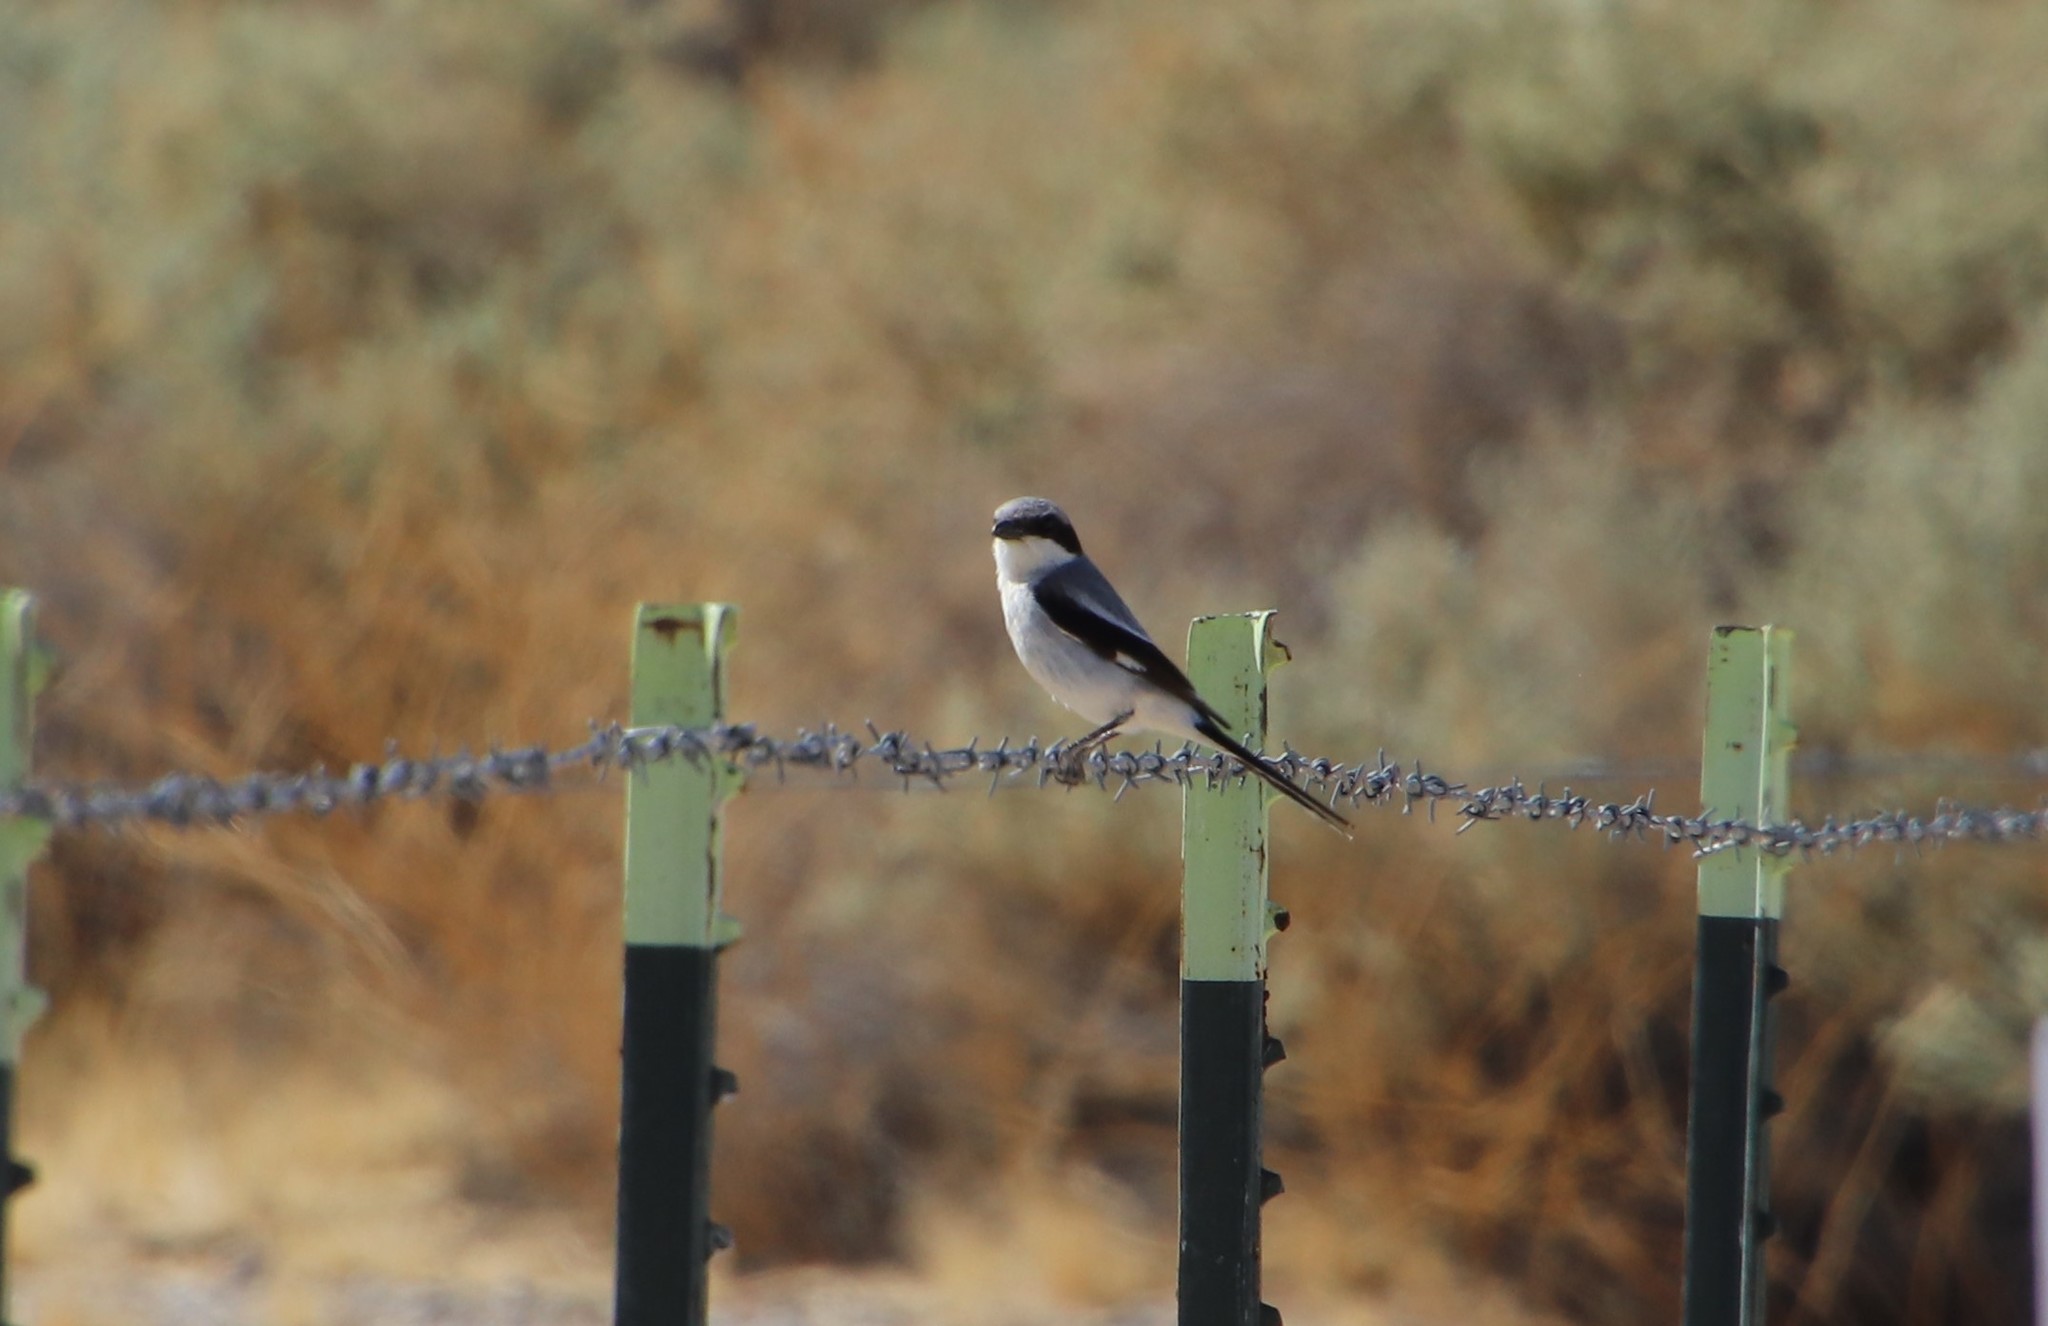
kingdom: Animalia
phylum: Chordata
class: Aves
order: Passeriformes
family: Laniidae
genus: Lanius
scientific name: Lanius ludovicianus
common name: Loggerhead shrike
